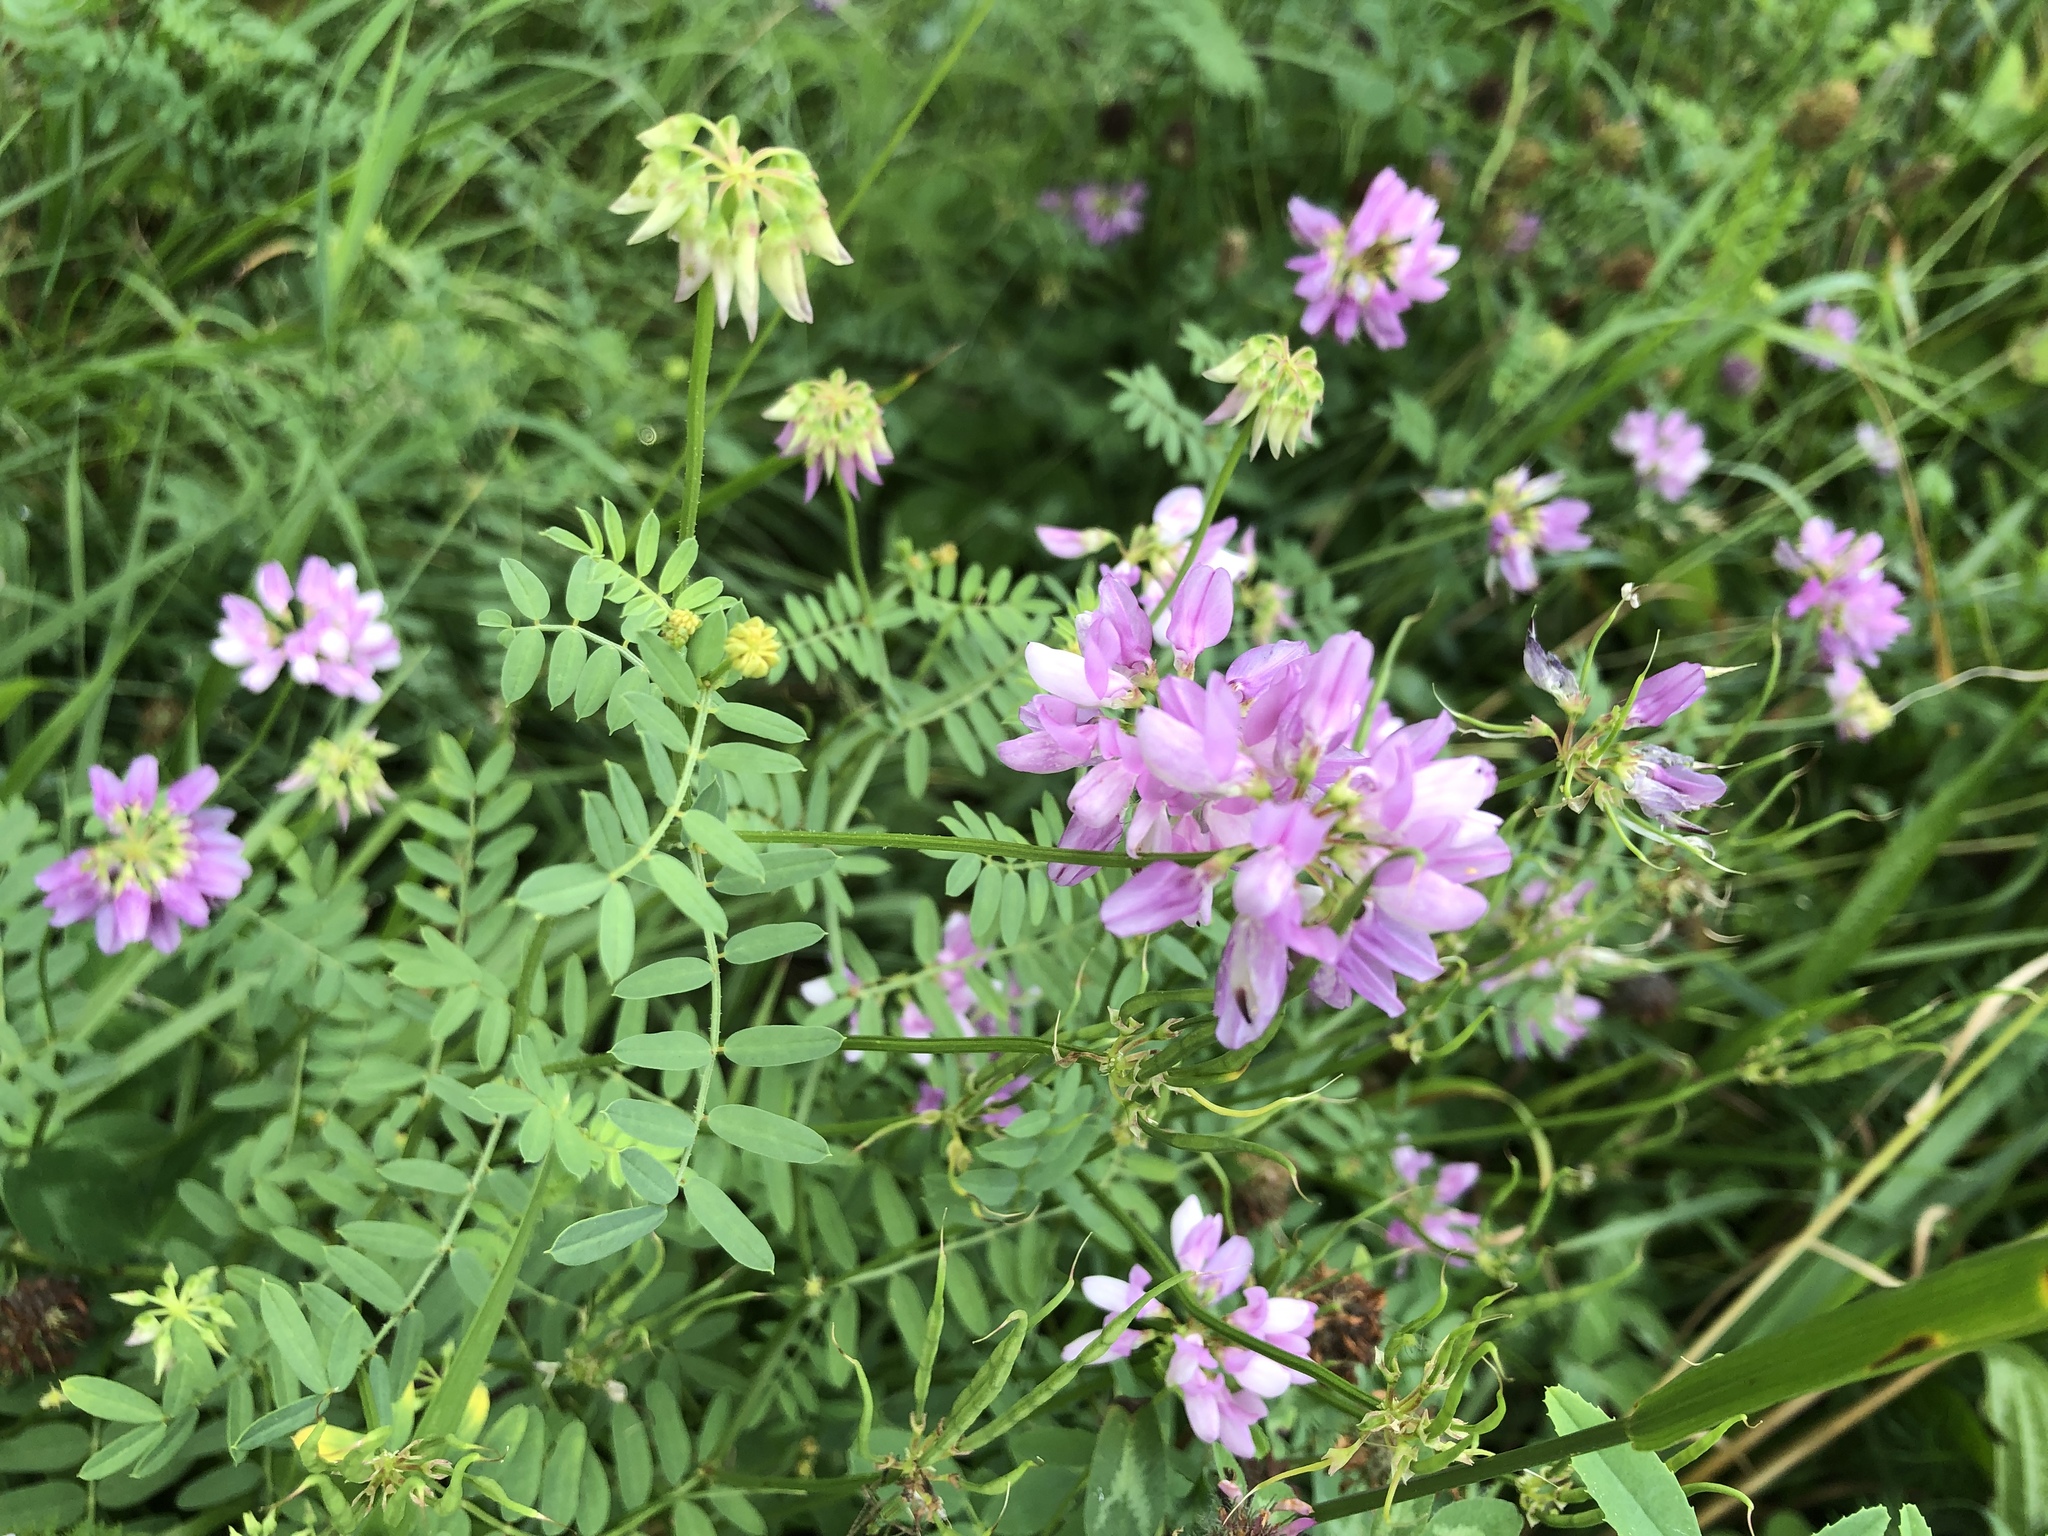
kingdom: Plantae
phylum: Tracheophyta
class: Magnoliopsida
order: Fabales
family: Fabaceae
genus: Coronilla
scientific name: Coronilla varia
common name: Crownvetch
